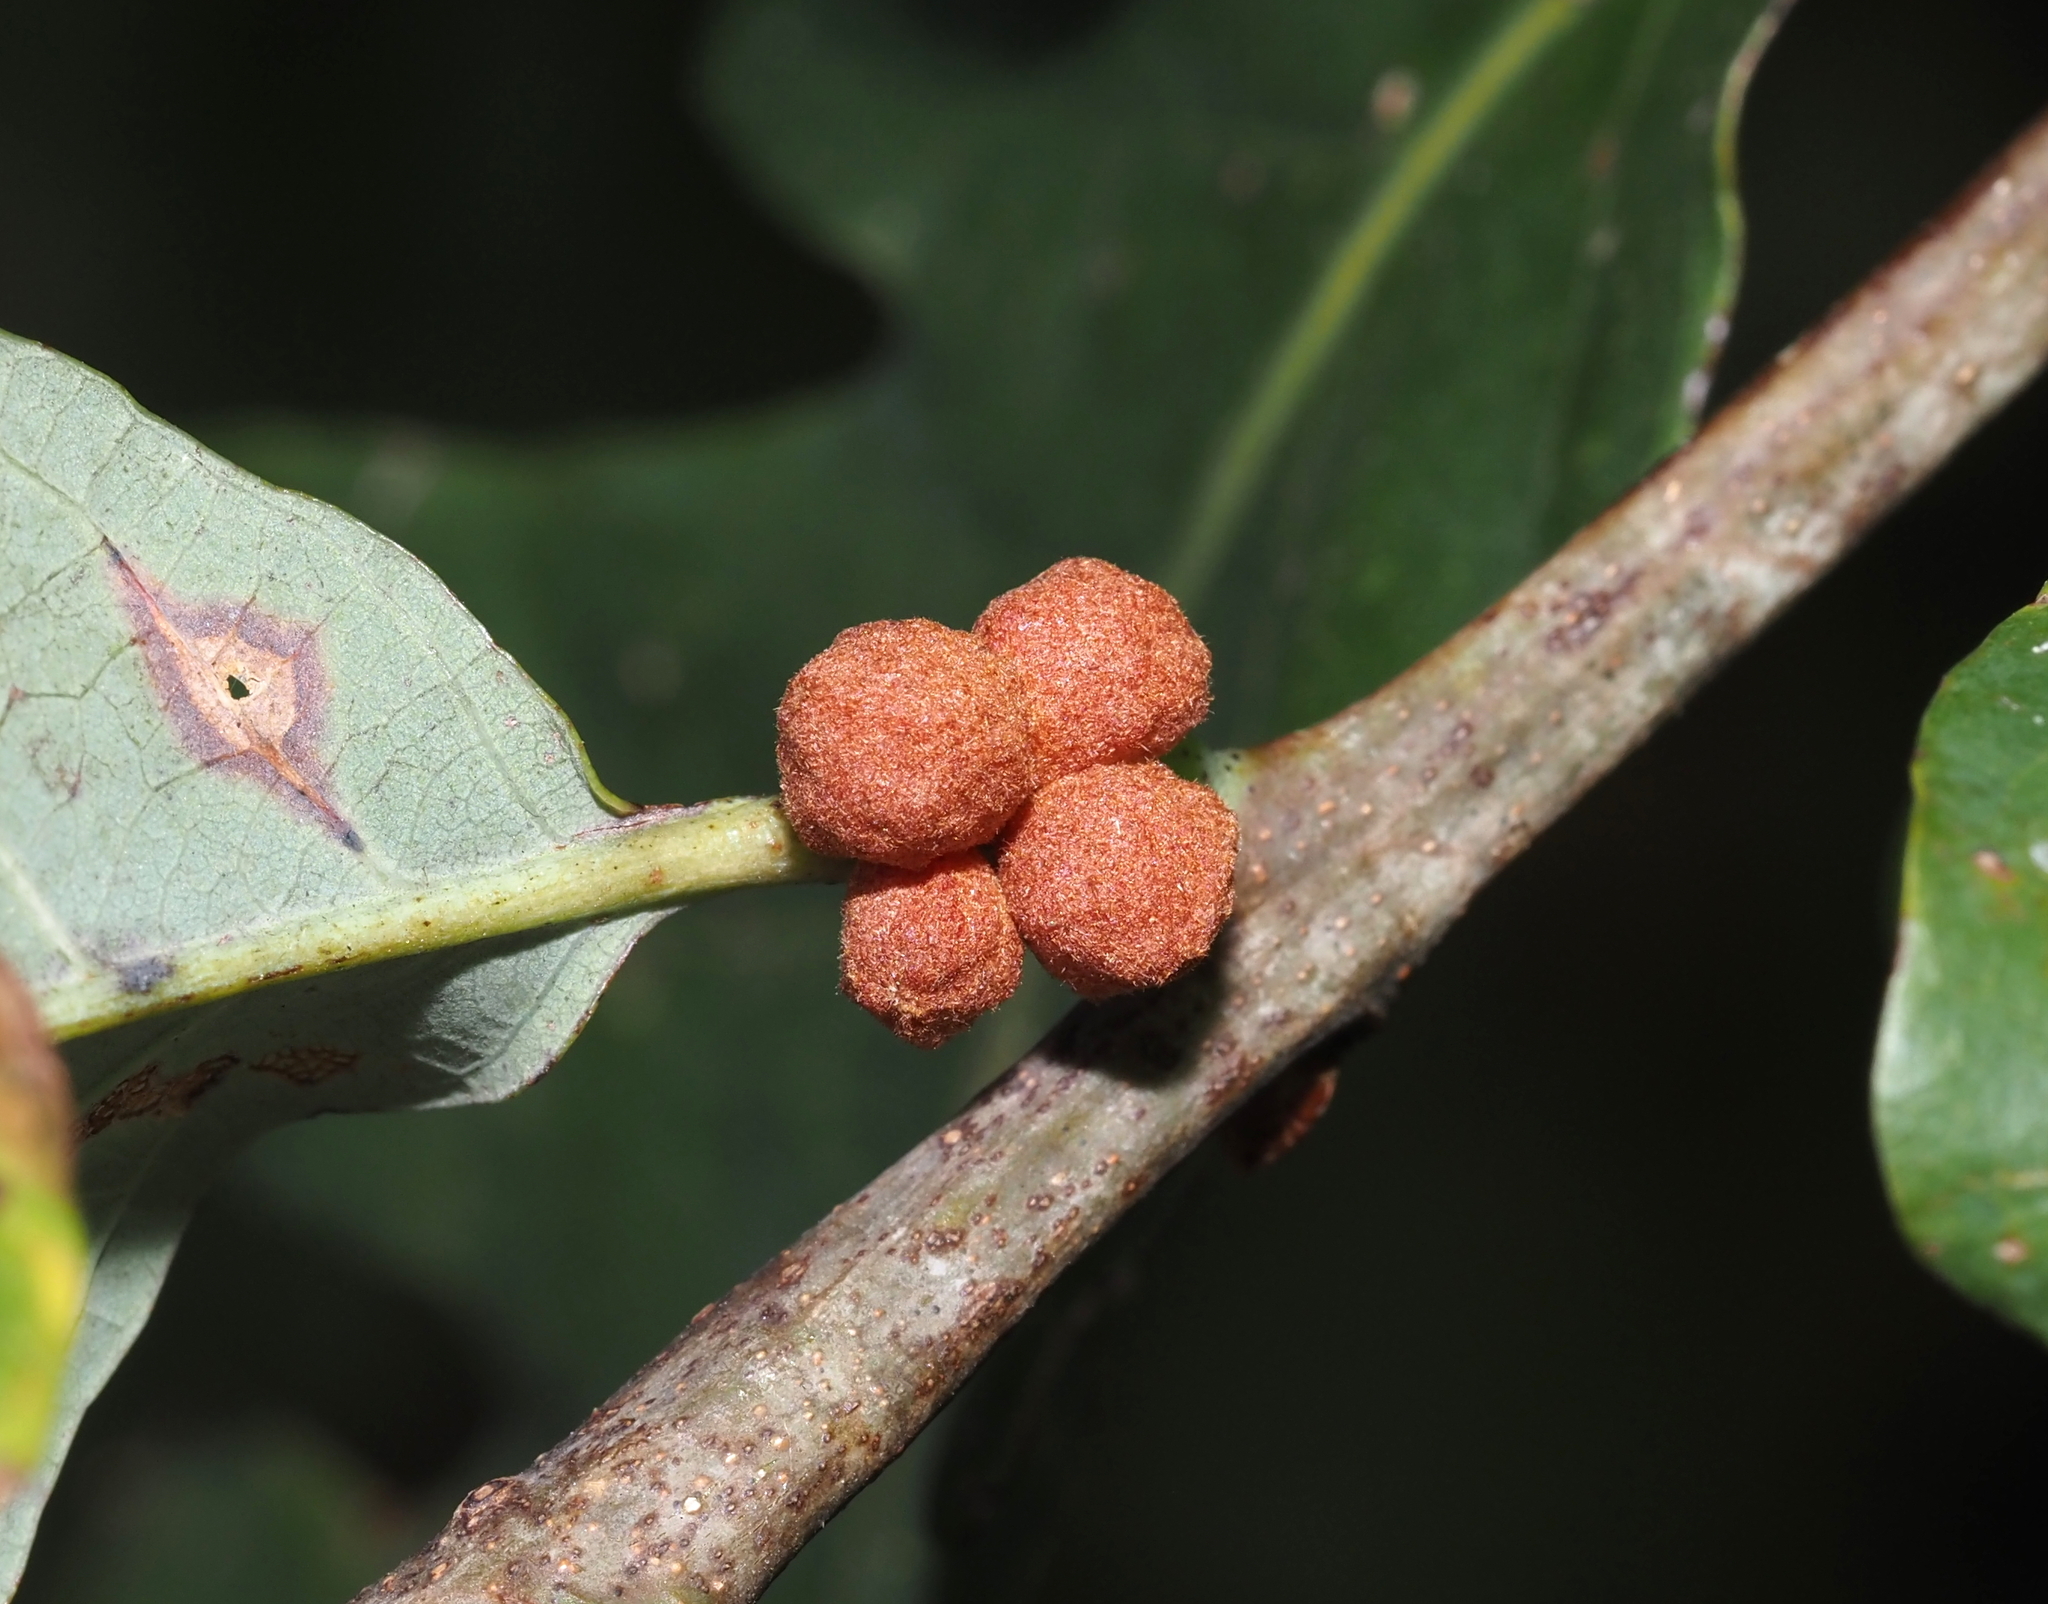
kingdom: Animalia
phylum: Arthropoda
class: Insecta
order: Hymenoptera
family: Cynipidae
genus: Andricus
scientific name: Andricus
